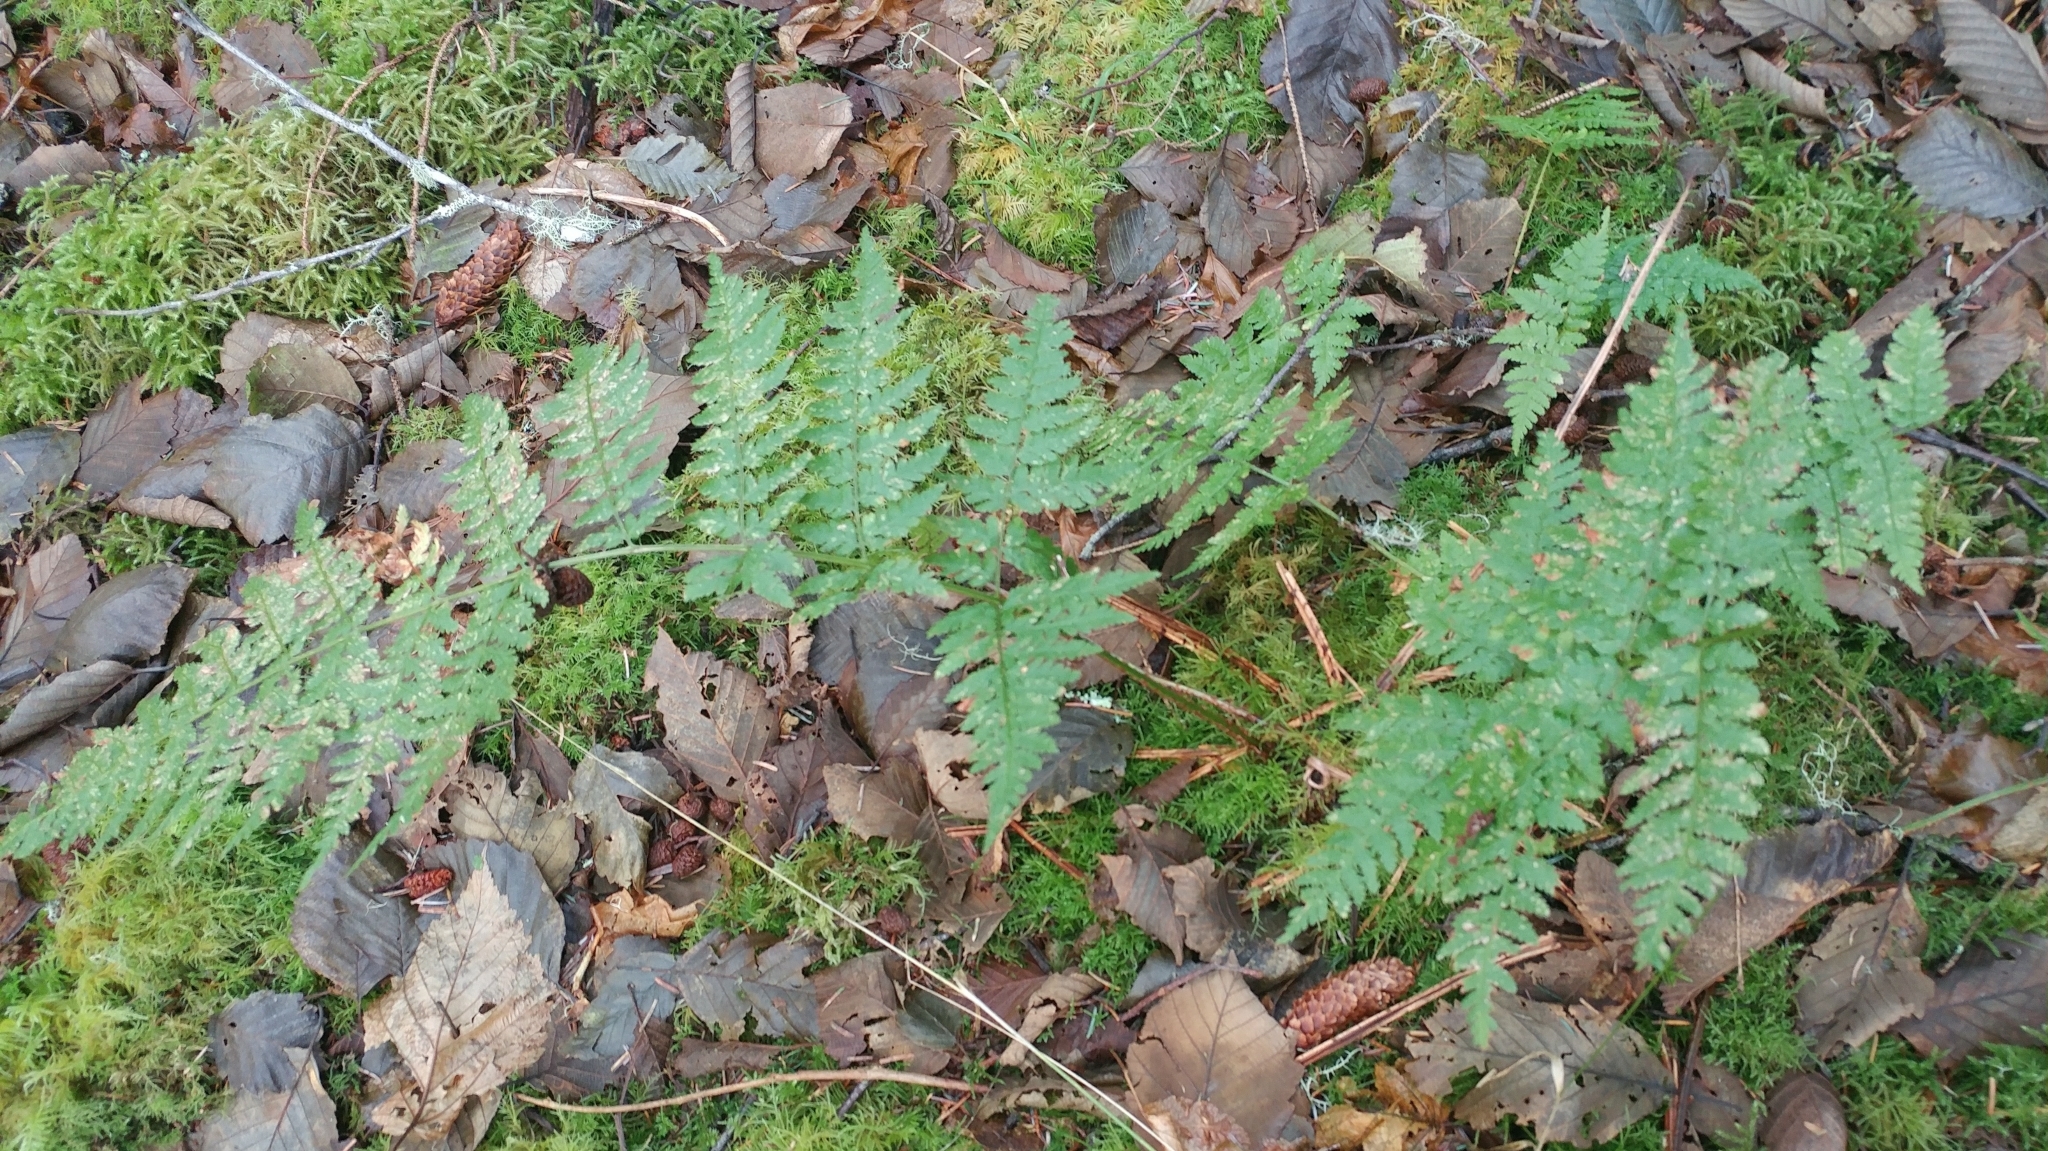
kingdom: Plantae
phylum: Tracheophyta
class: Polypodiopsida
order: Polypodiales
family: Dryopteridaceae
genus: Dryopteris
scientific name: Dryopteris expansa
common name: Northern buckler fern
